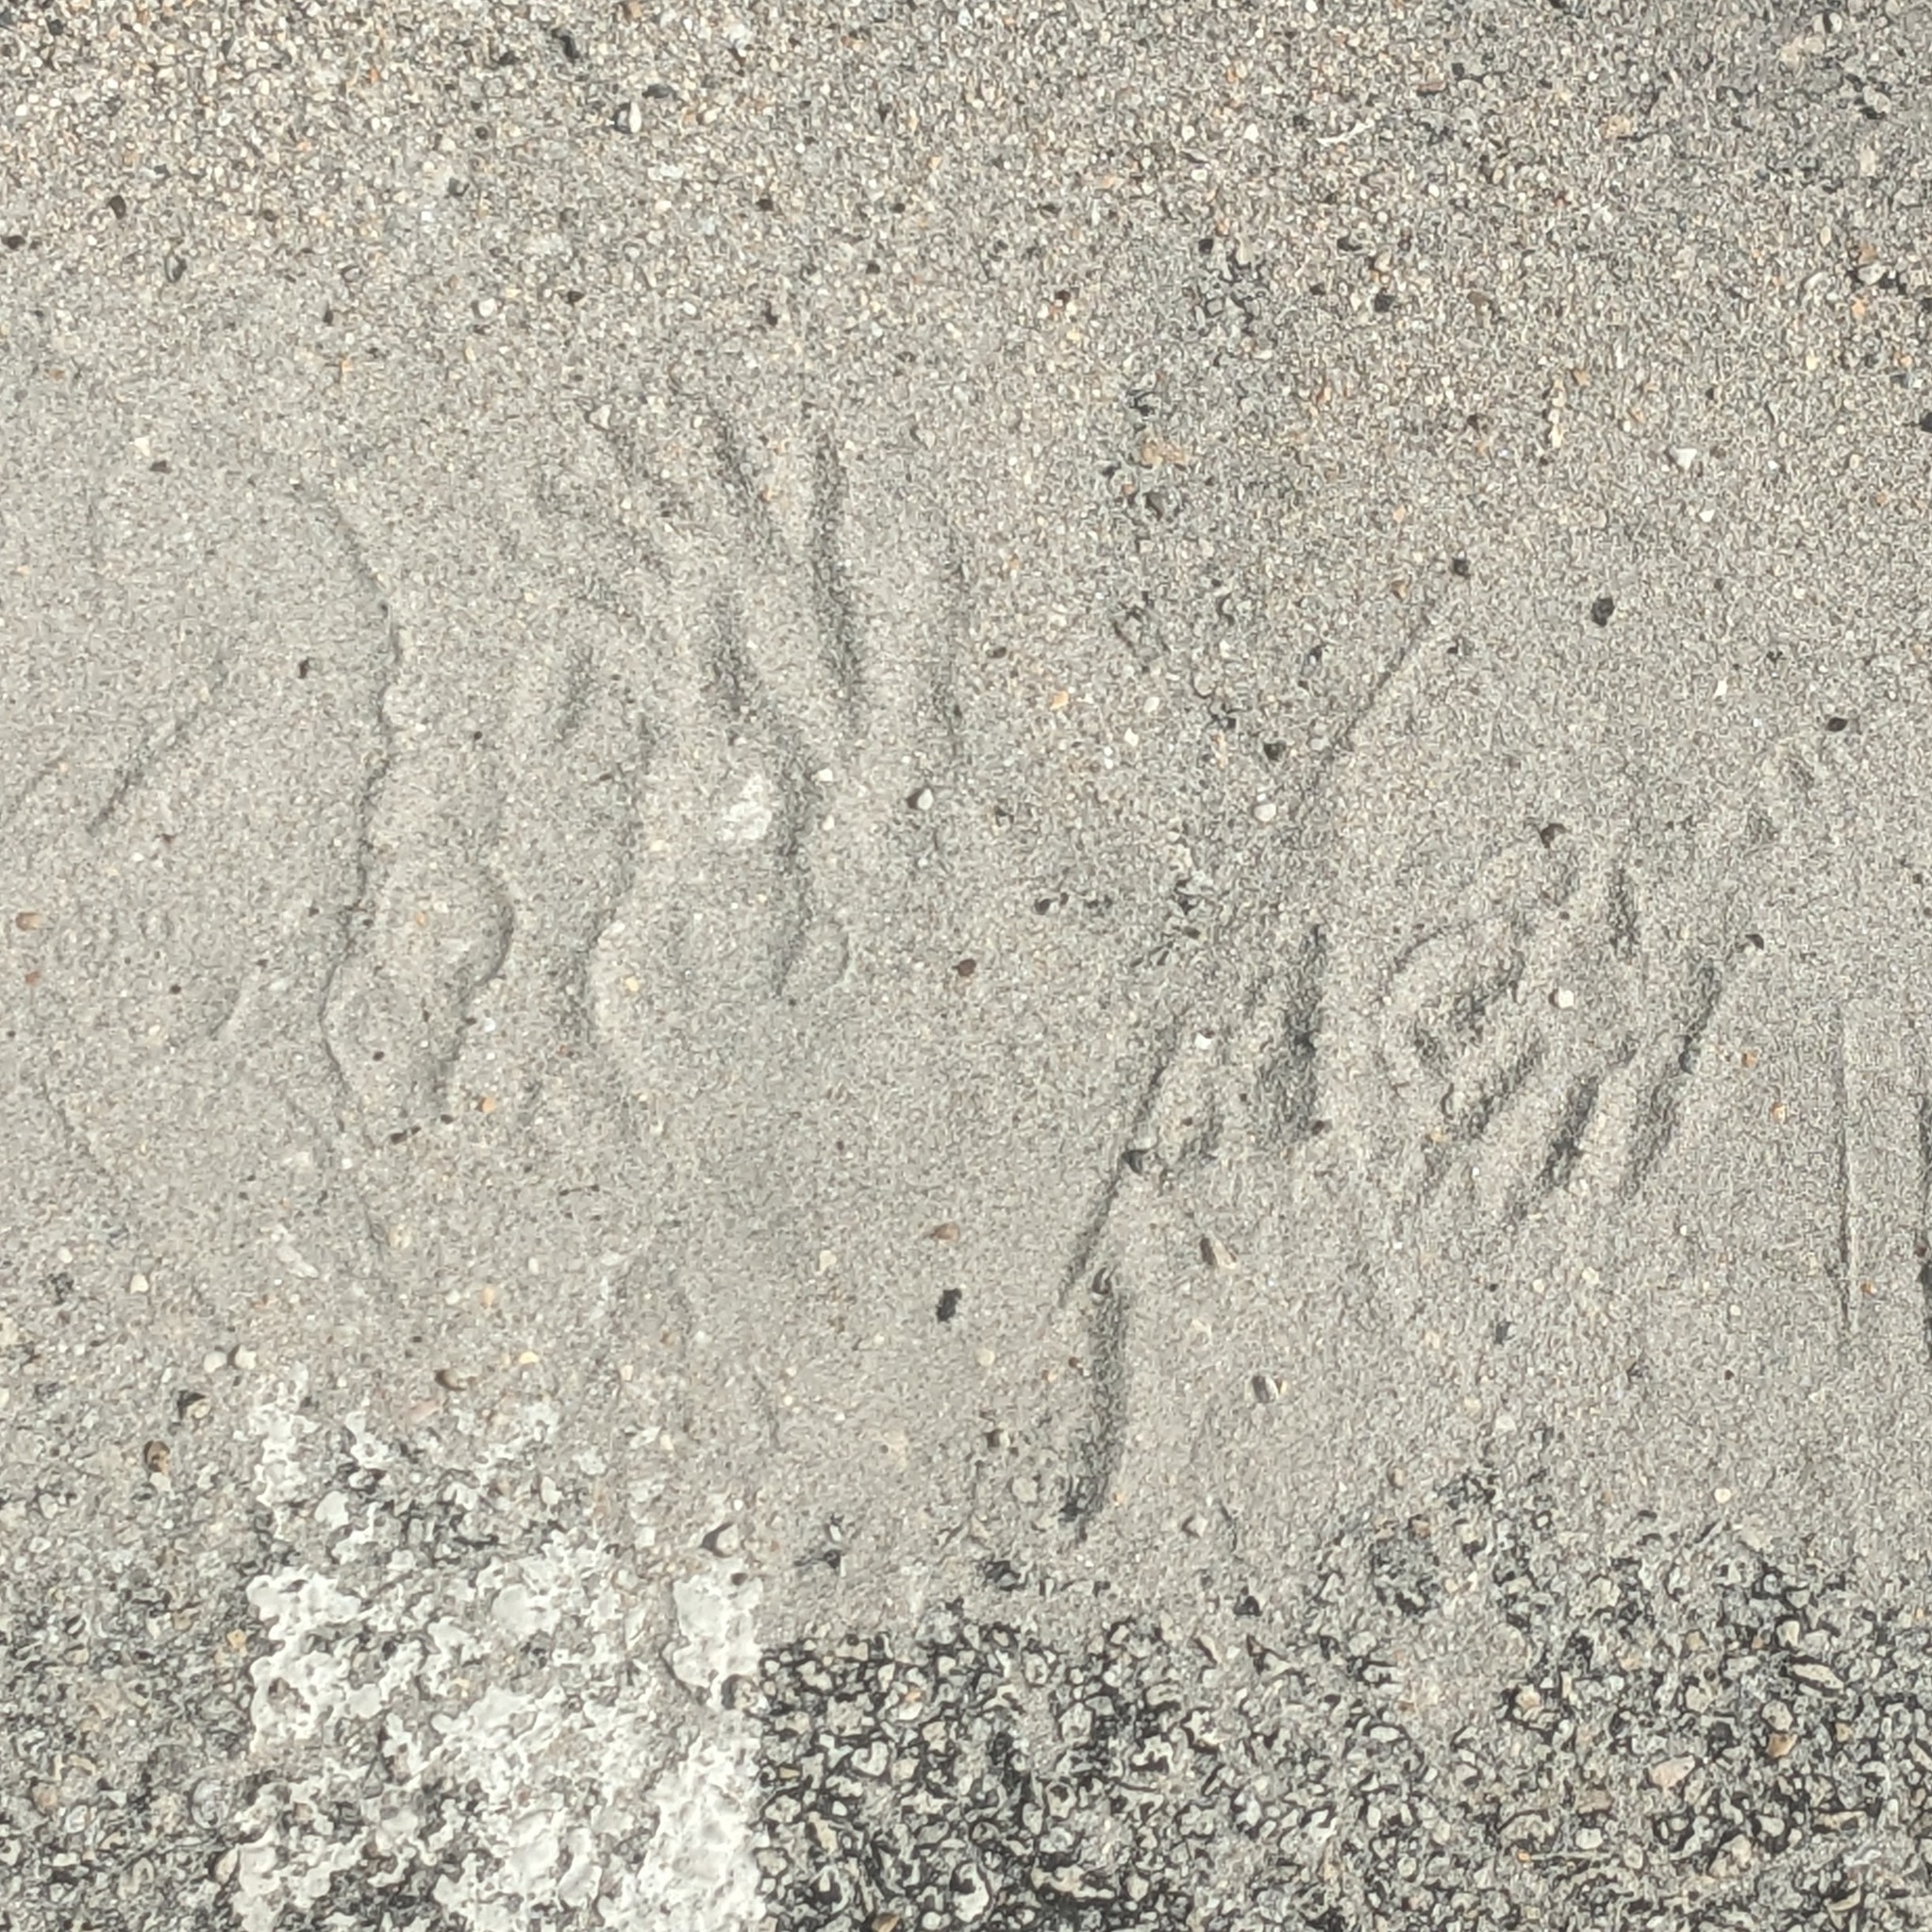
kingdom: Animalia
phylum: Chordata
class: Mammalia
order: Carnivora
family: Procyonidae
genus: Procyon
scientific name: Procyon lotor
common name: Raccoon
